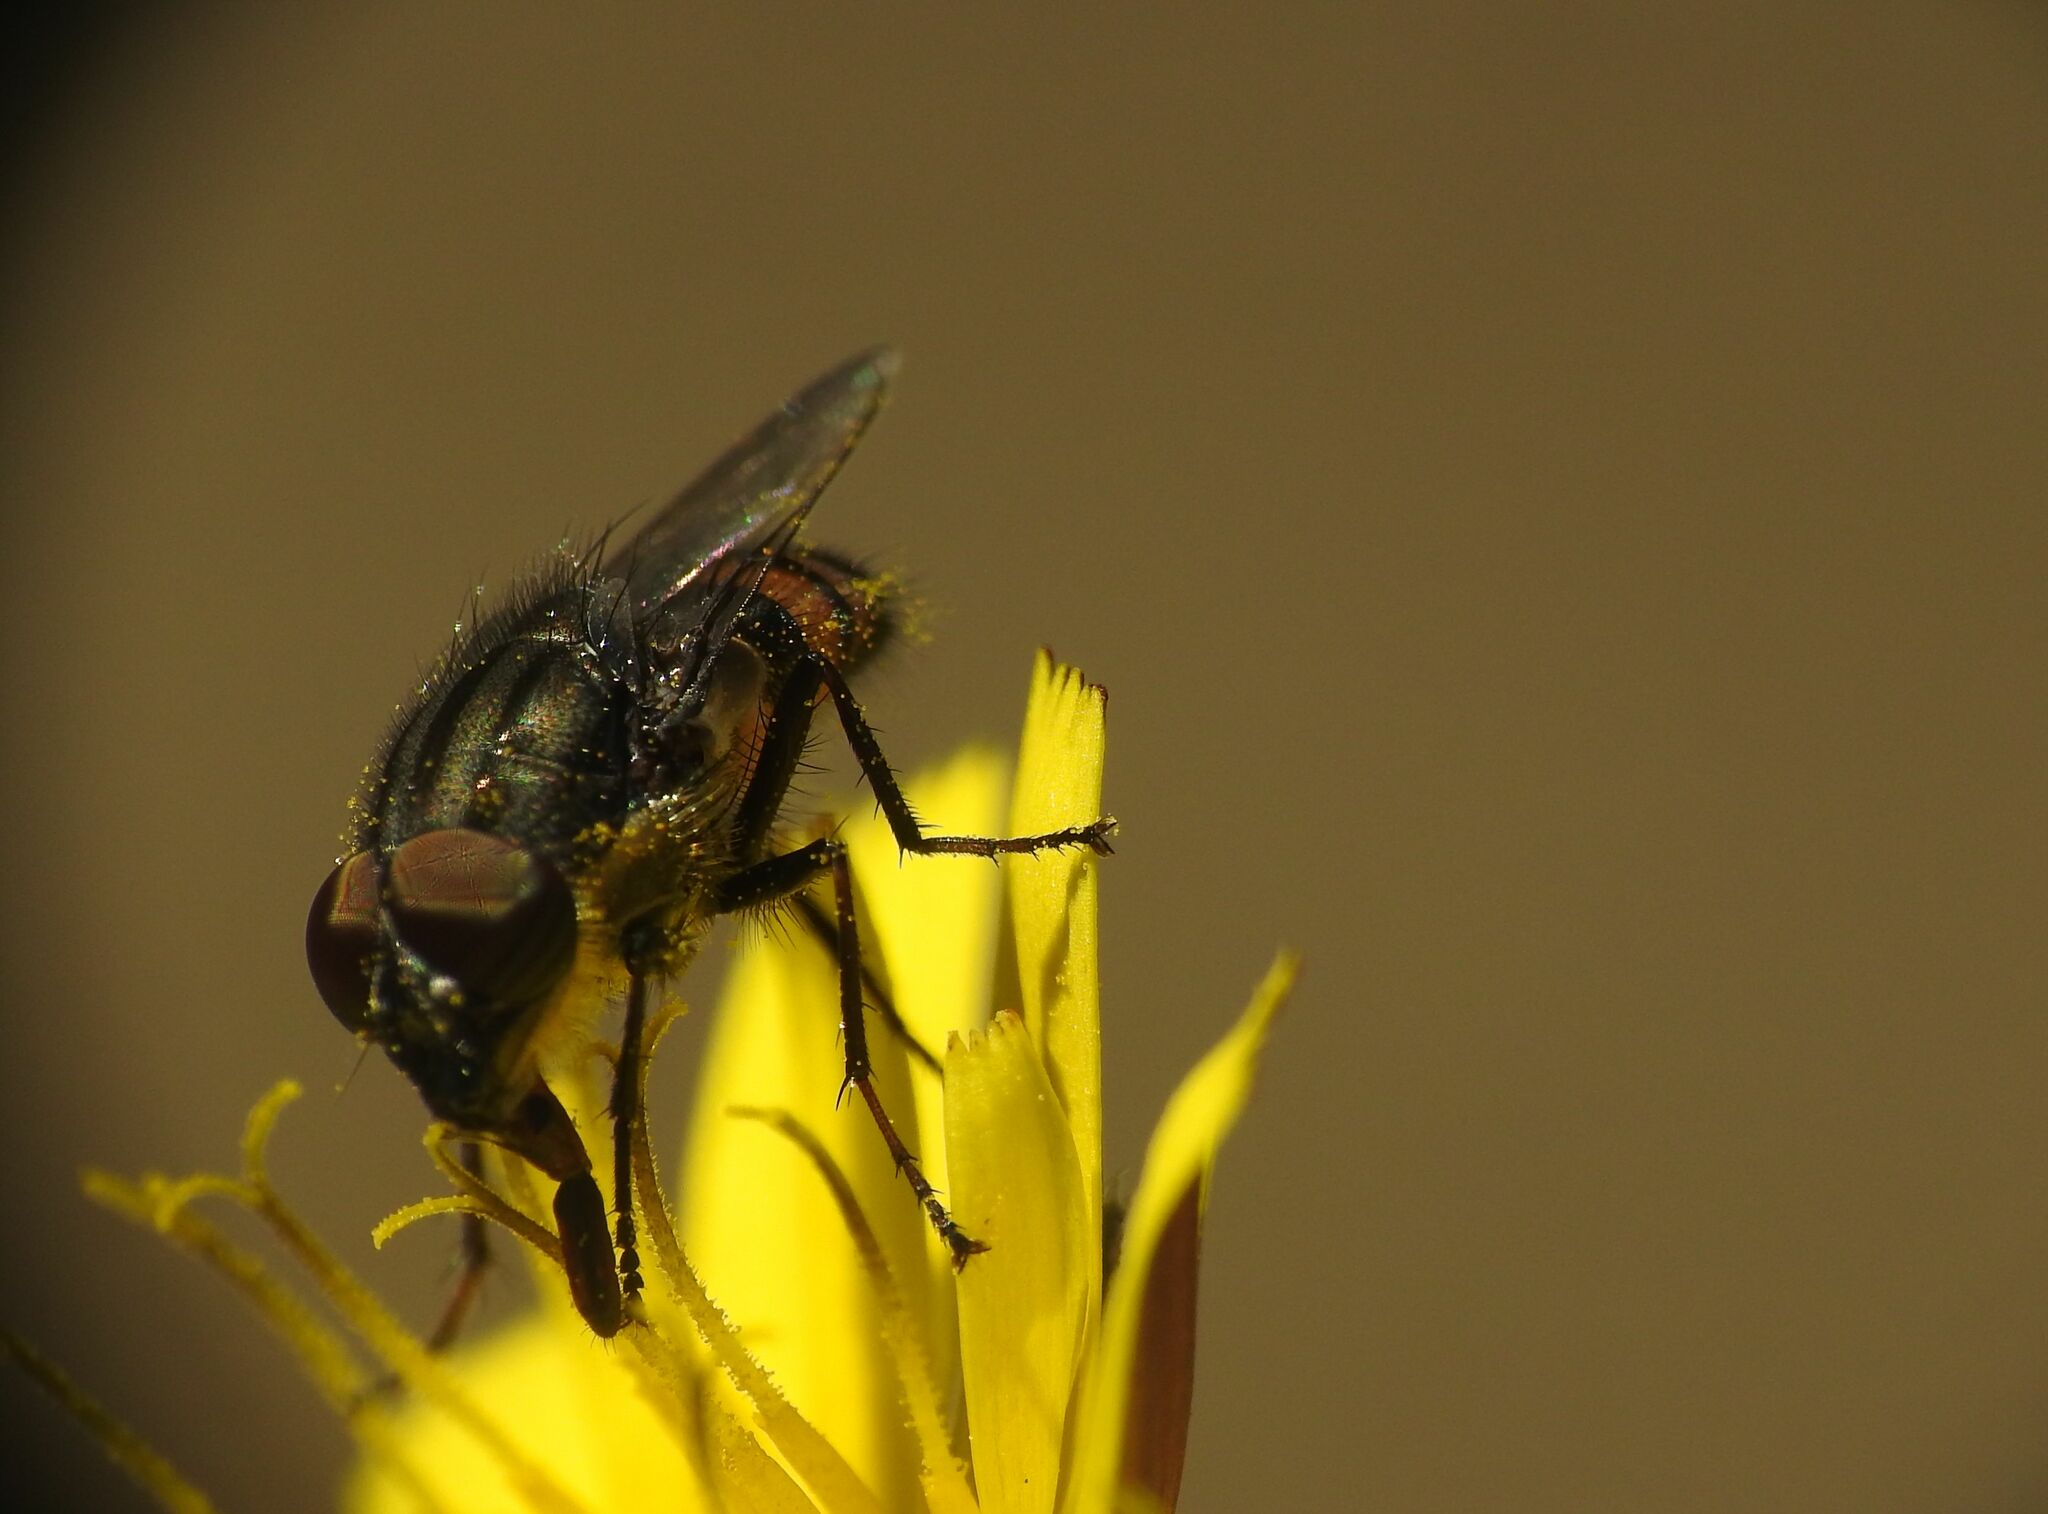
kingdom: Animalia
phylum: Arthropoda
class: Insecta
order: Diptera
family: Calliphoridae
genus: Stomorhina
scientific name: Stomorhina lunata
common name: Locust blowfly
